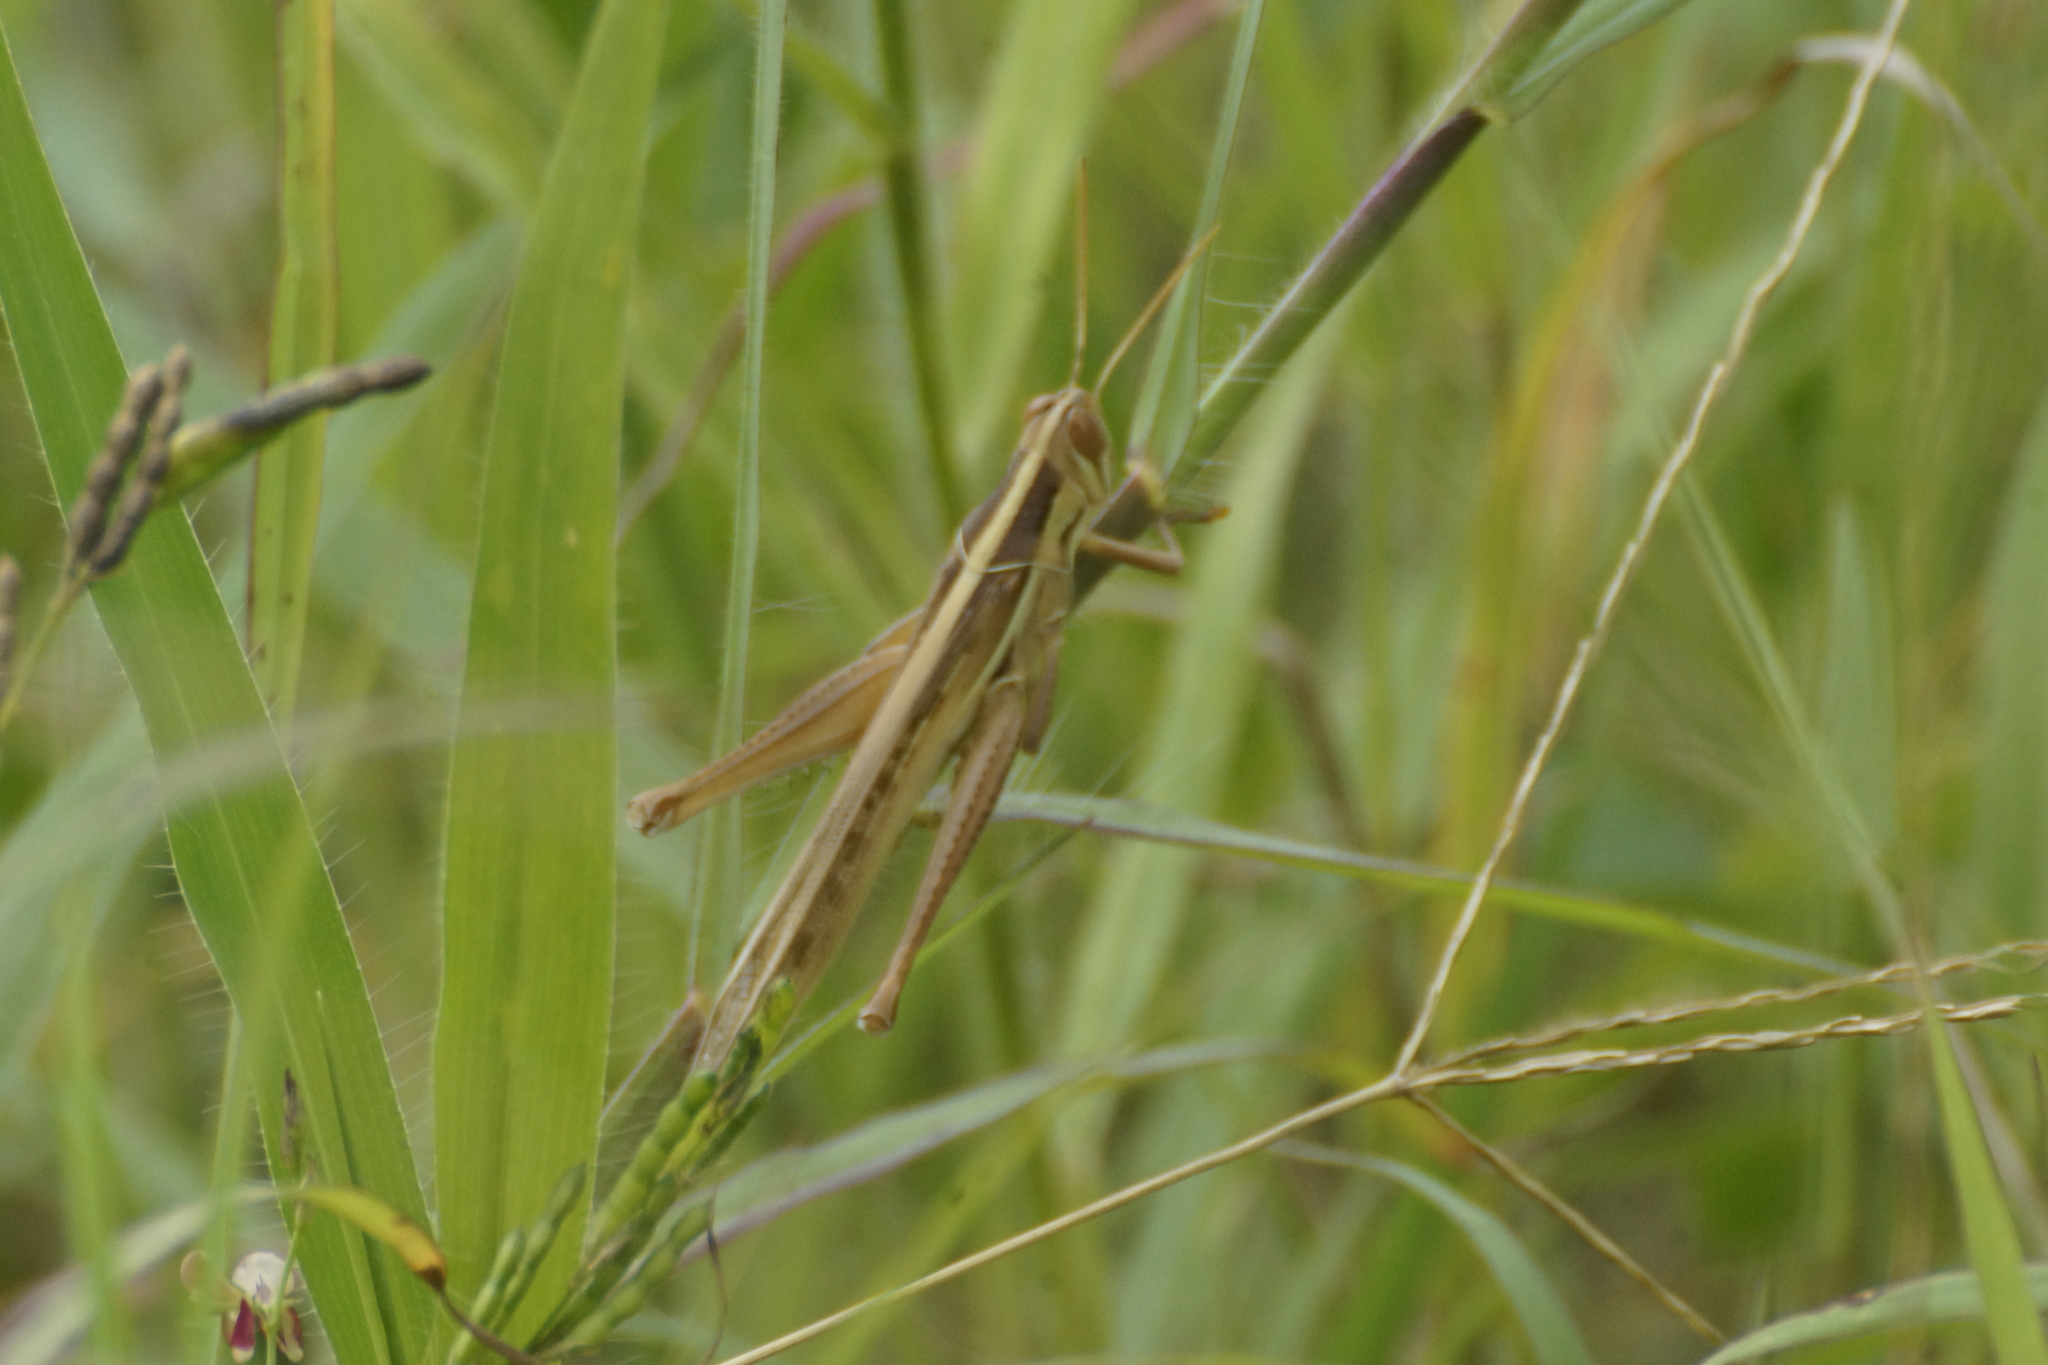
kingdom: Animalia
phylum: Arthropoda
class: Insecta
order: Orthoptera
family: Acrididae
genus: Austracris
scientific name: Austracris guttulosa
